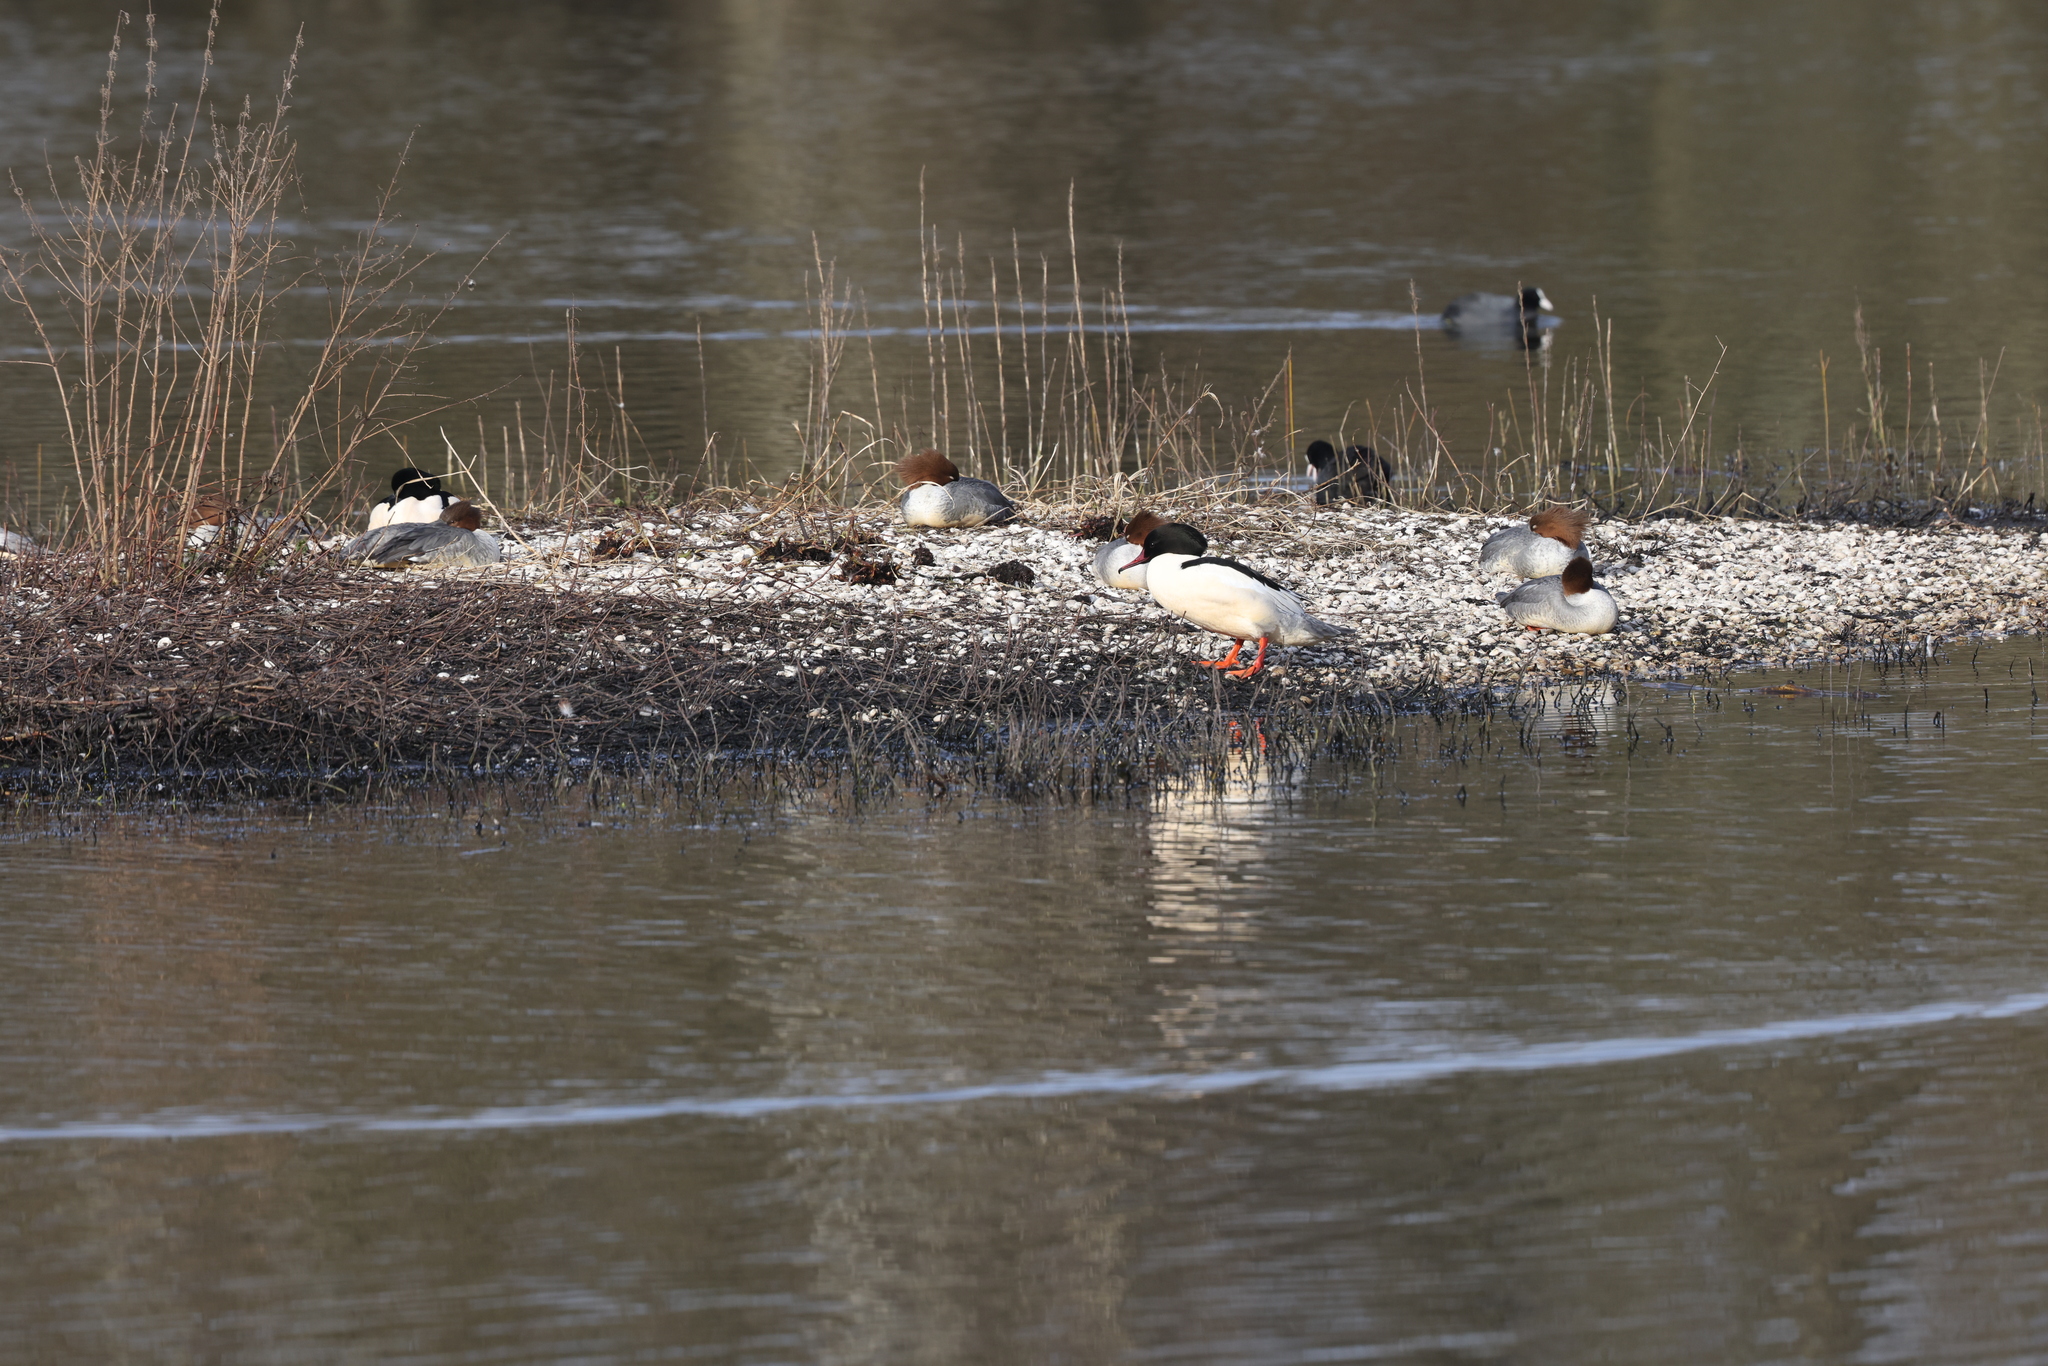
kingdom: Animalia
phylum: Chordata
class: Aves
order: Anseriformes
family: Anatidae
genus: Mergus
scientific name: Mergus merganser
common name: Common merganser
